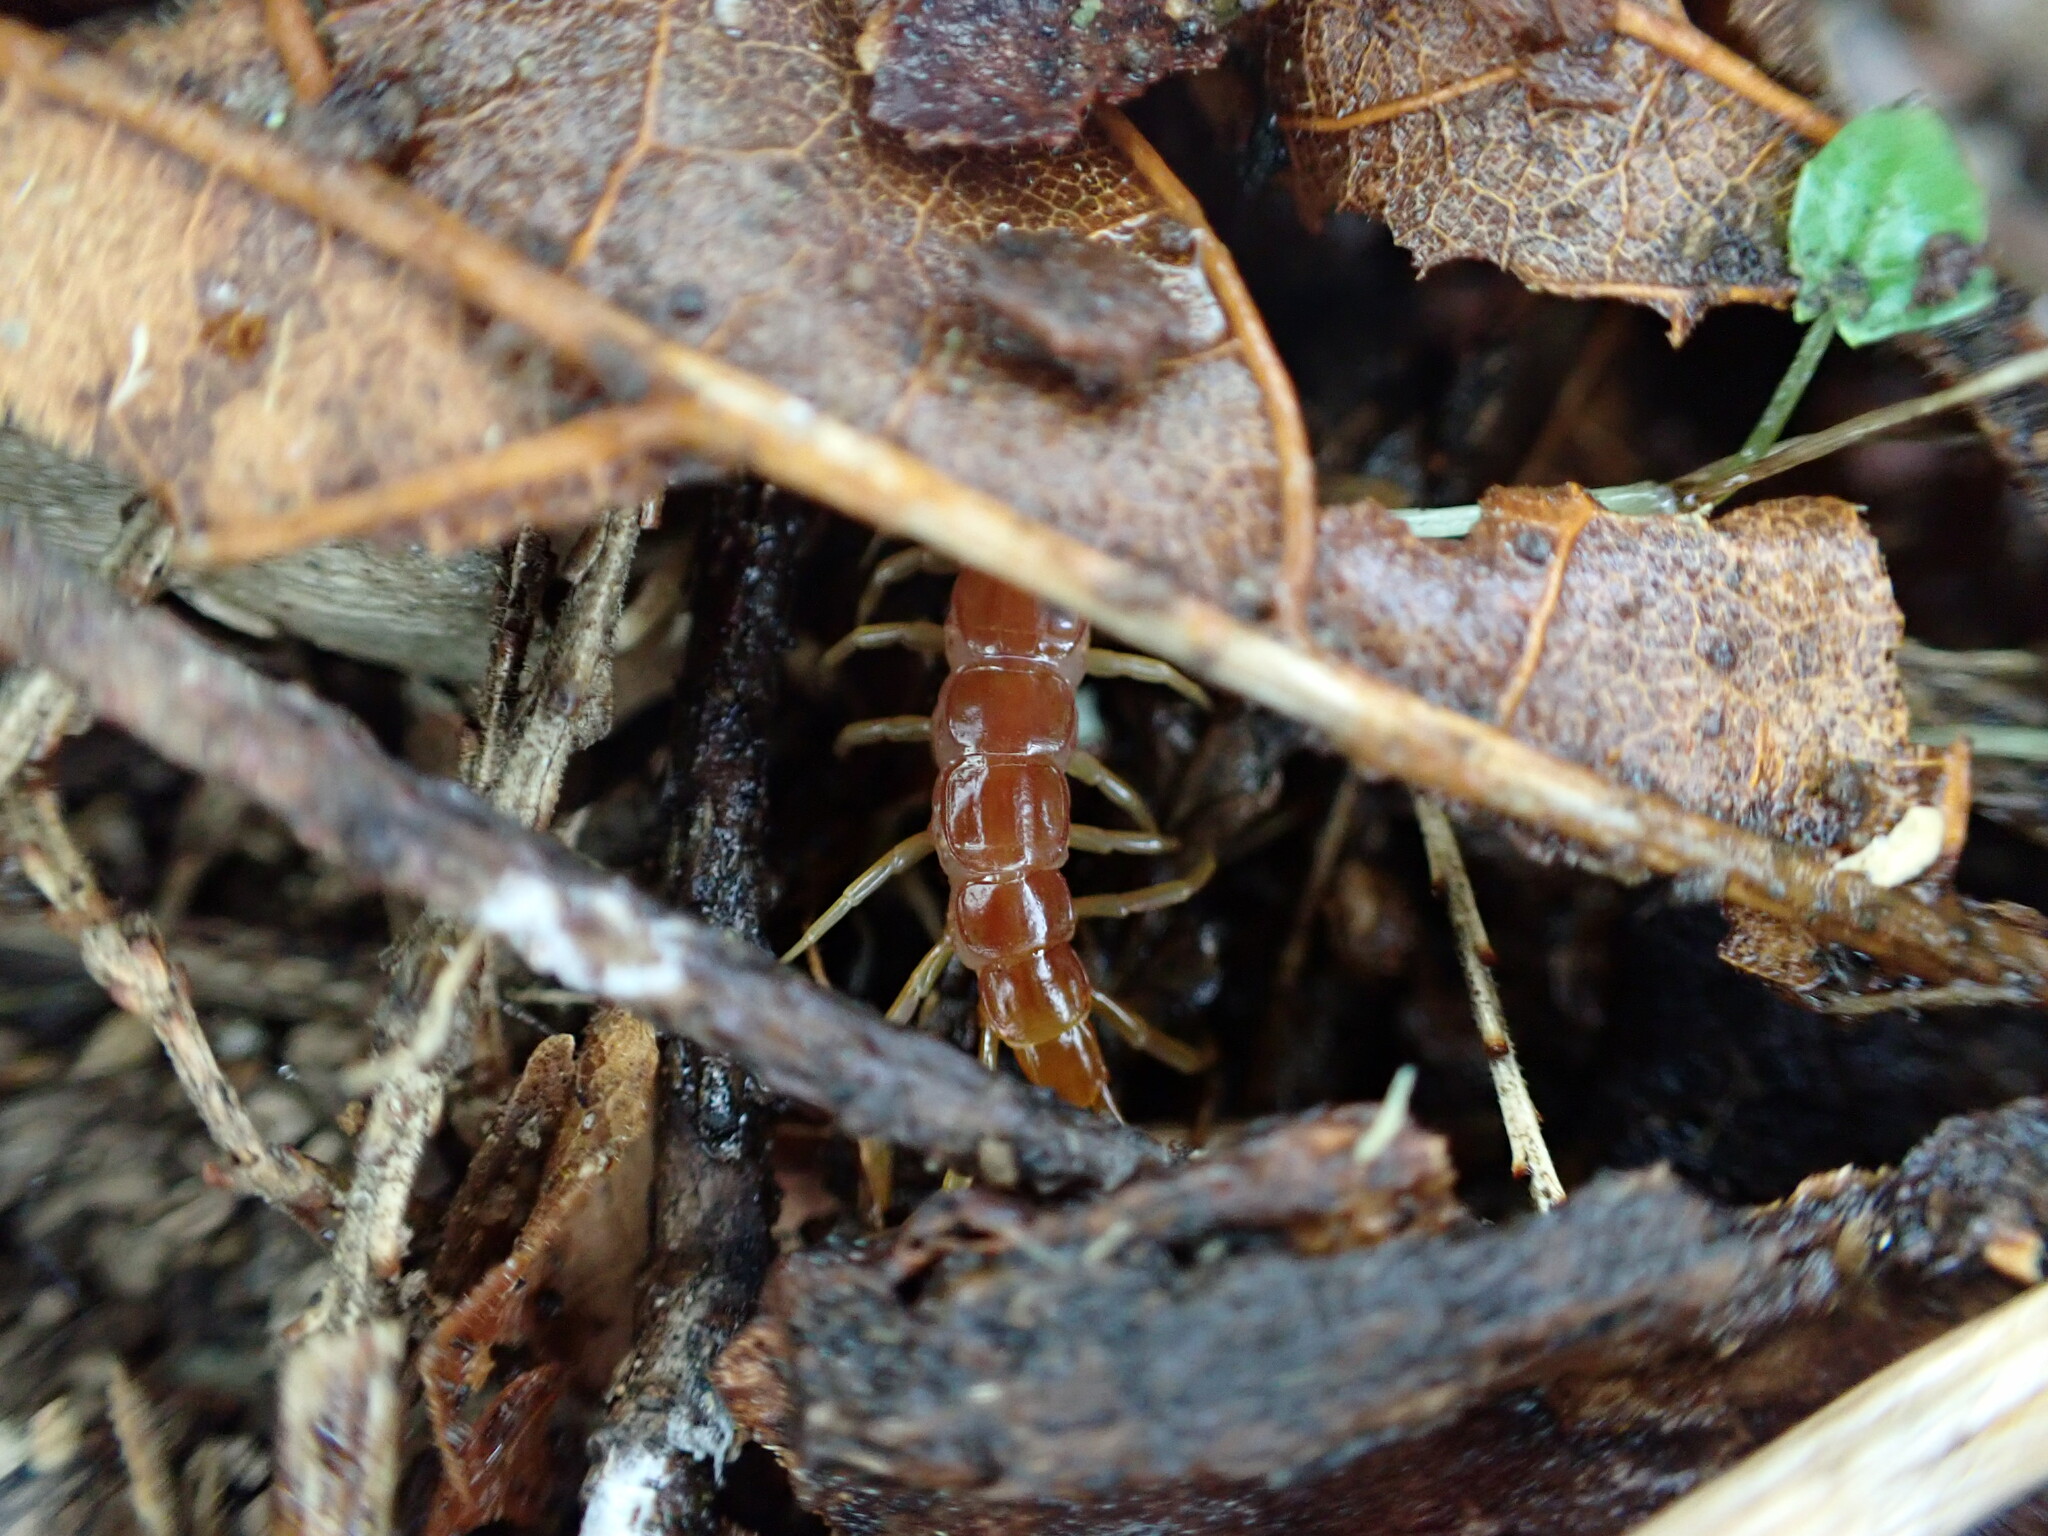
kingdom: Animalia
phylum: Arthropoda
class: Chilopoda
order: Scolopendromorpha
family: Scolopocryptopidae
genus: Scolopocryptops
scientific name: Scolopocryptops spinicaudus
